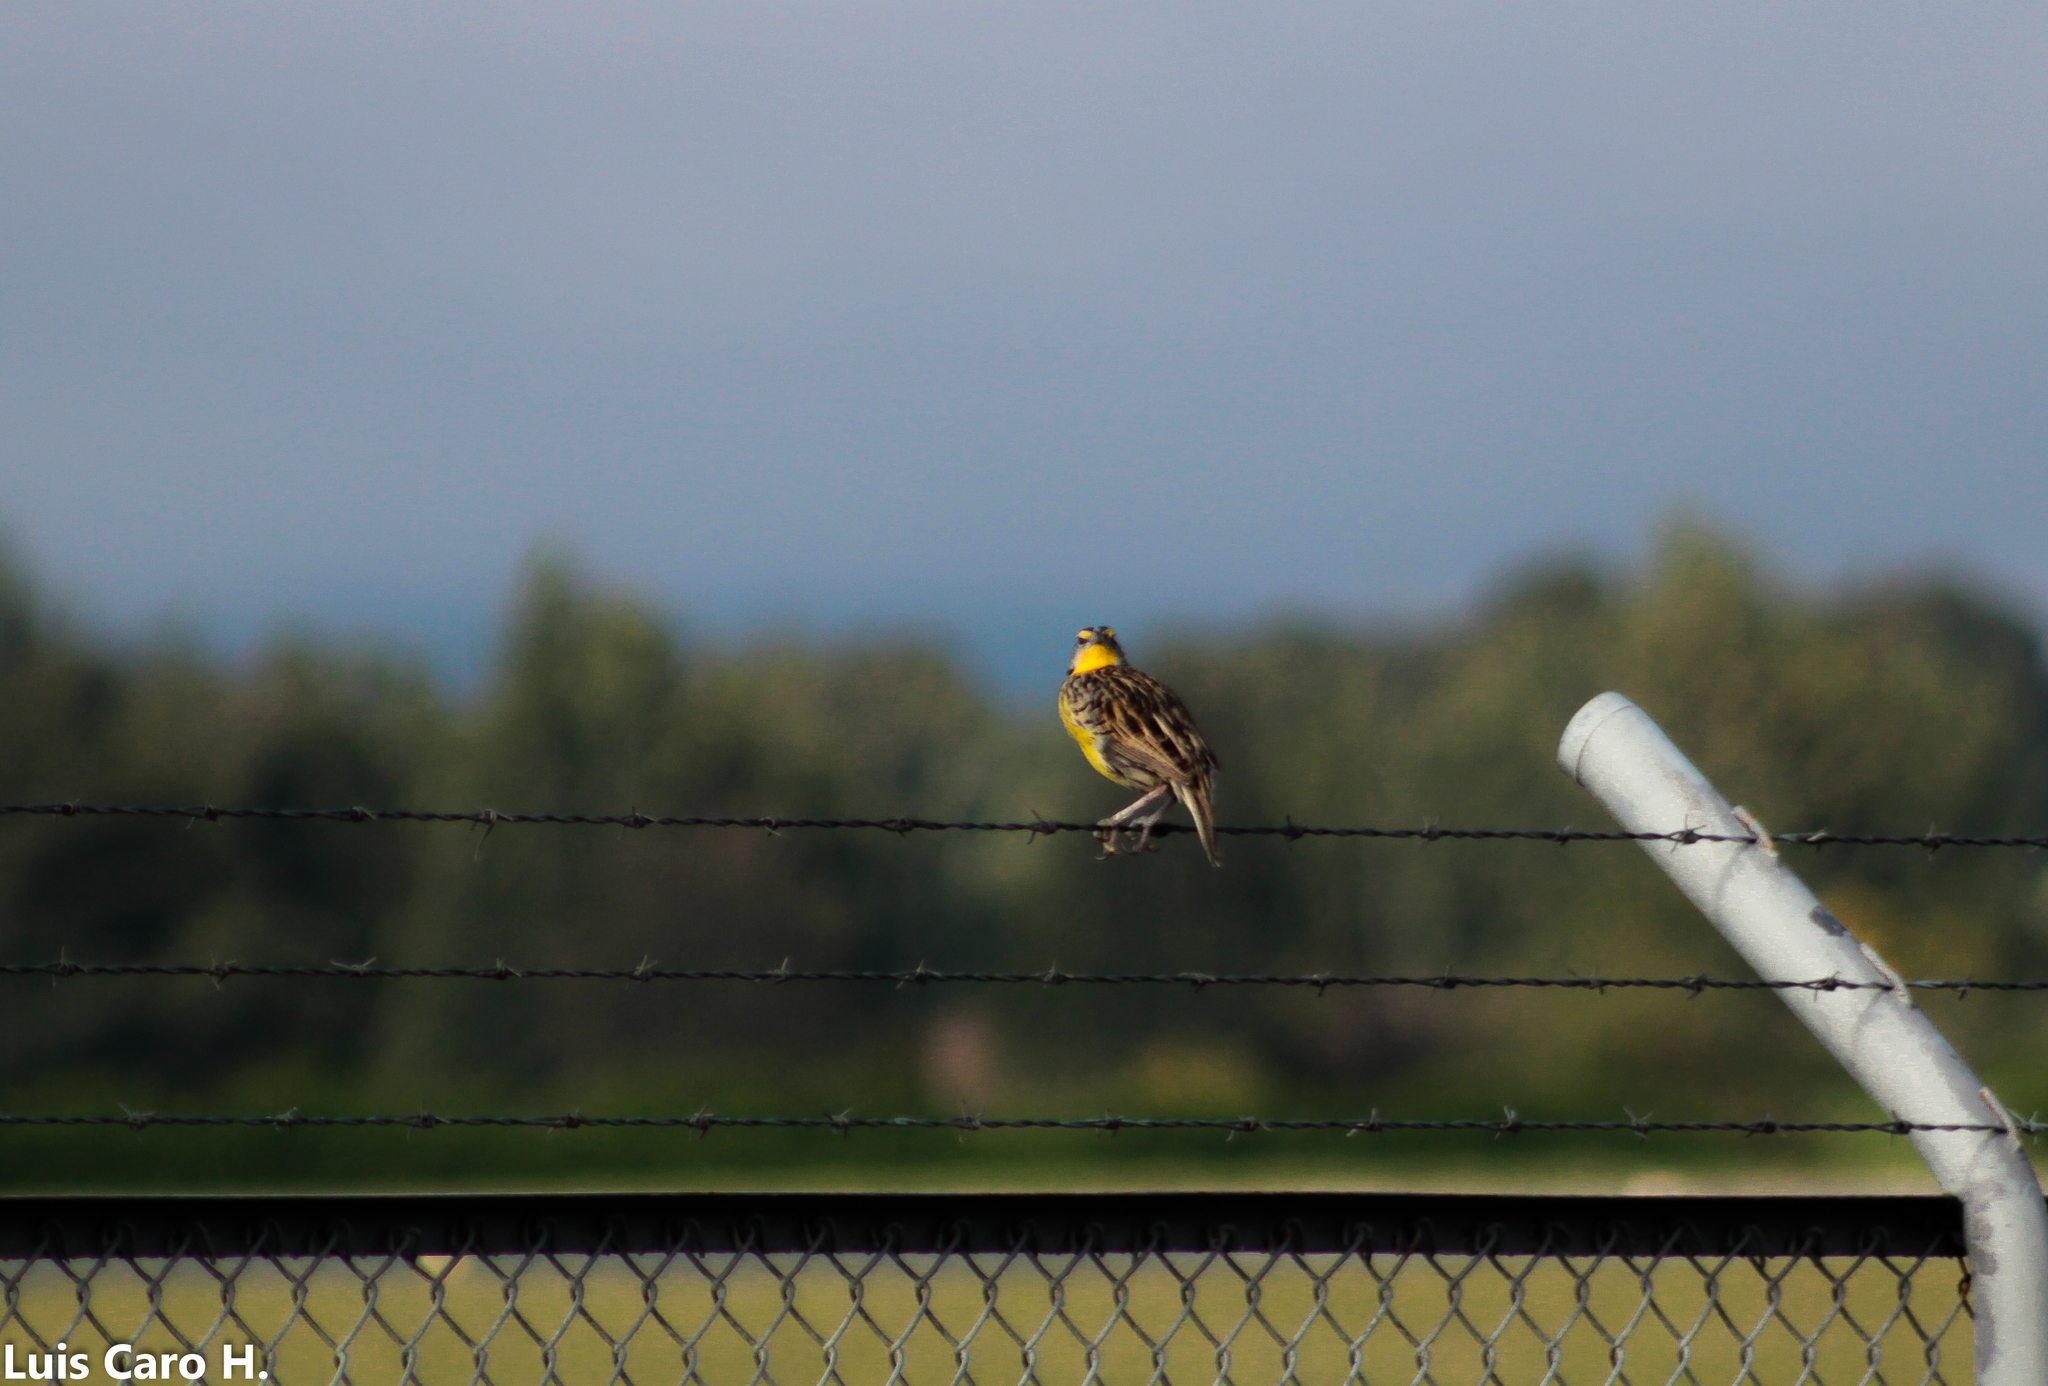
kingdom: Animalia
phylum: Chordata
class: Aves
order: Passeriformes
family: Icteridae
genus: Sturnella
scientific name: Sturnella magna
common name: Eastern meadowlark
